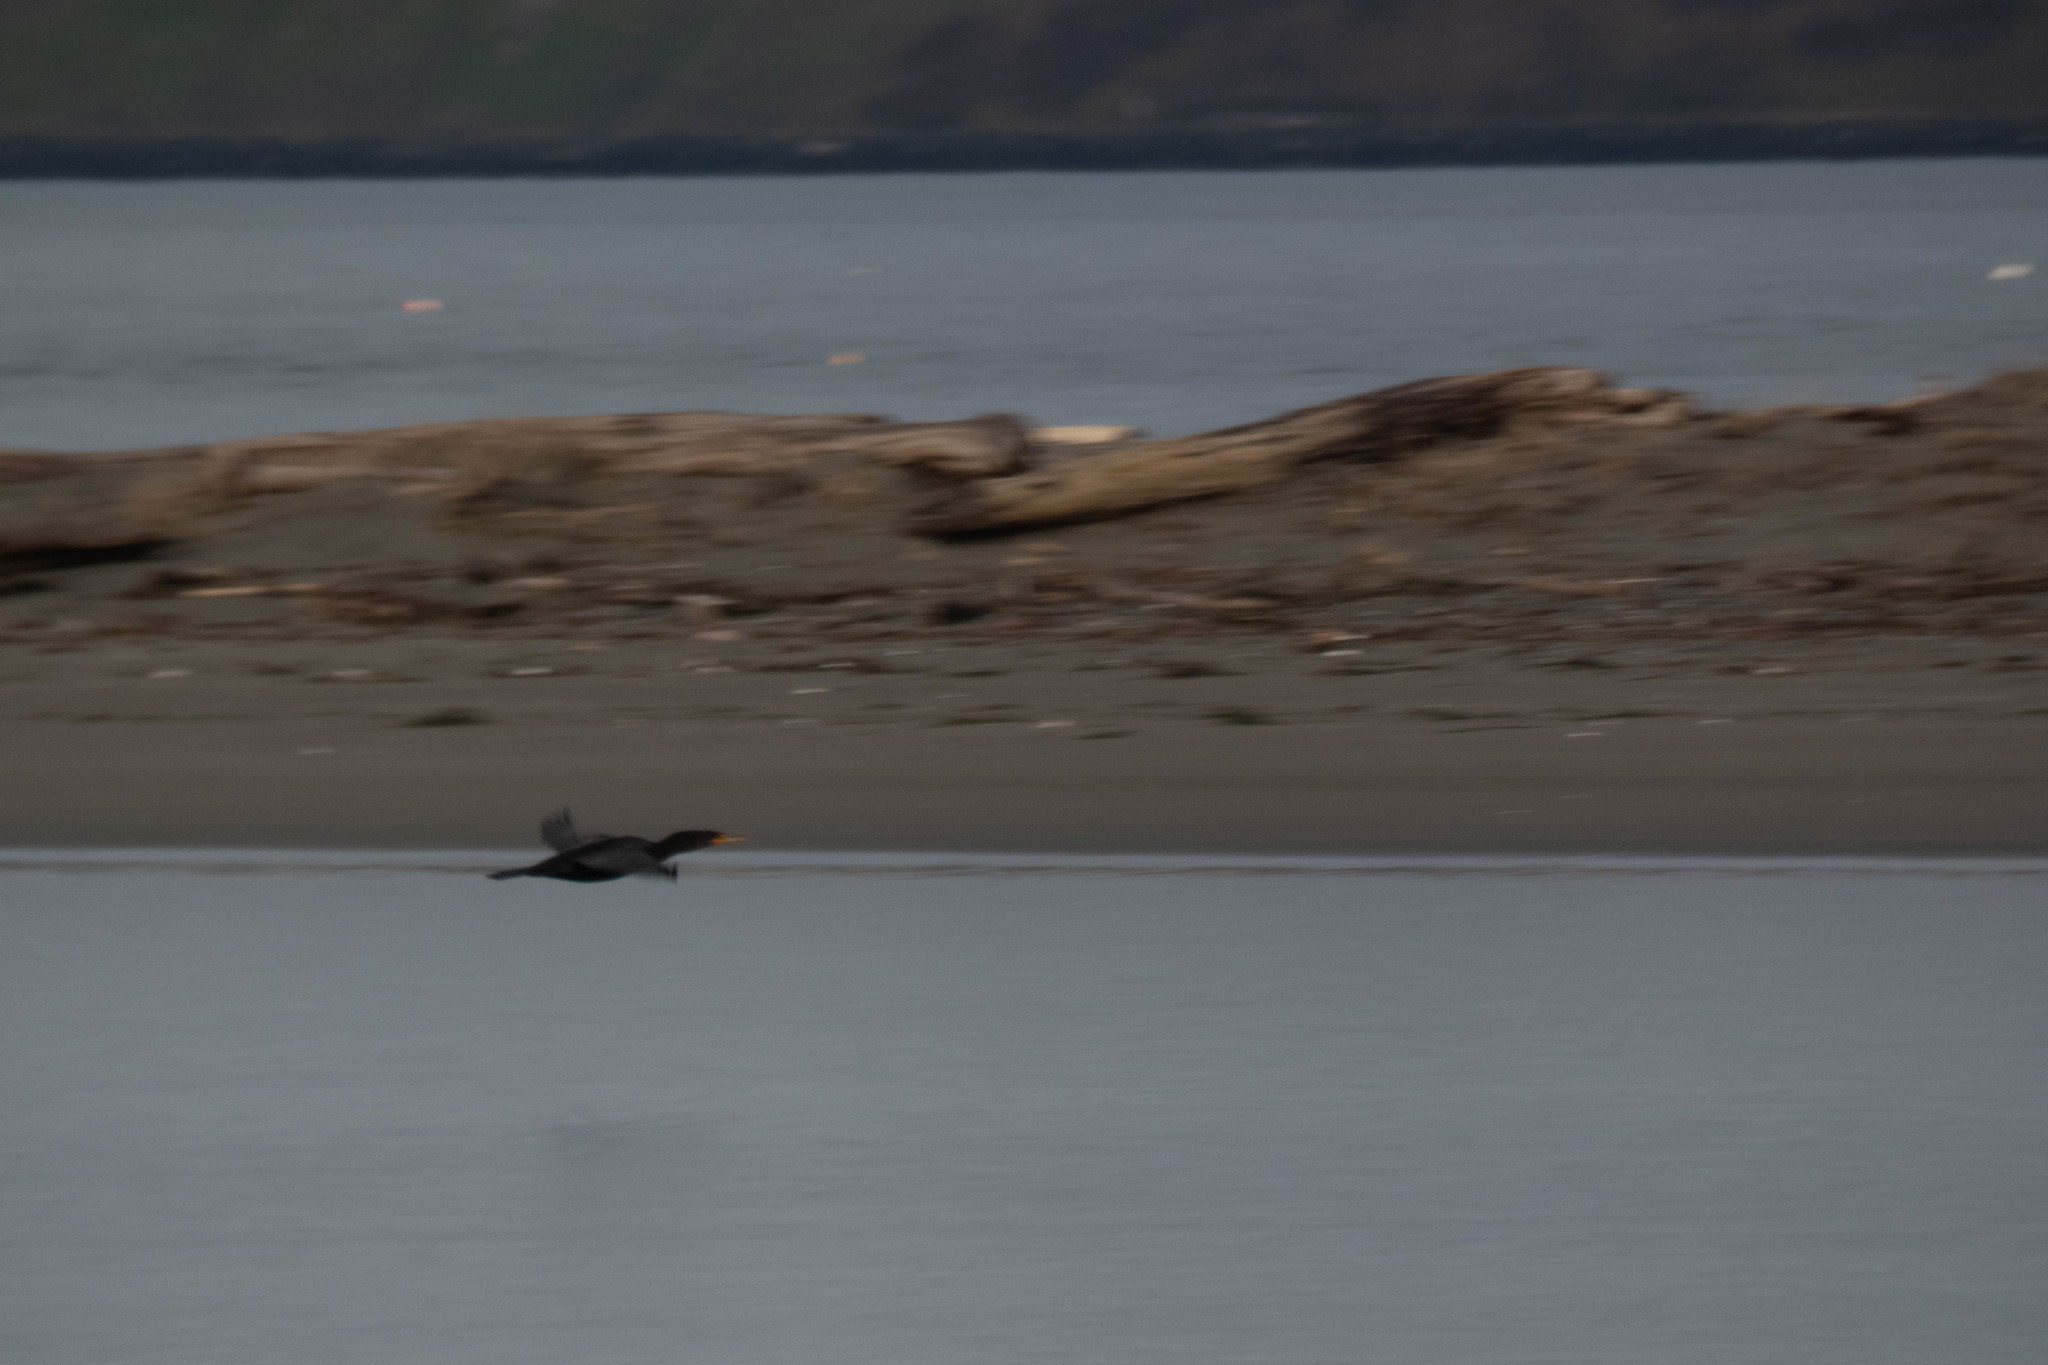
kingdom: Animalia
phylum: Chordata
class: Aves
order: Suliformes
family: Phalacrocoracidae
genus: Phalacrocorax
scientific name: Phalacrocorax auritus
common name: Double-crested cormorant
